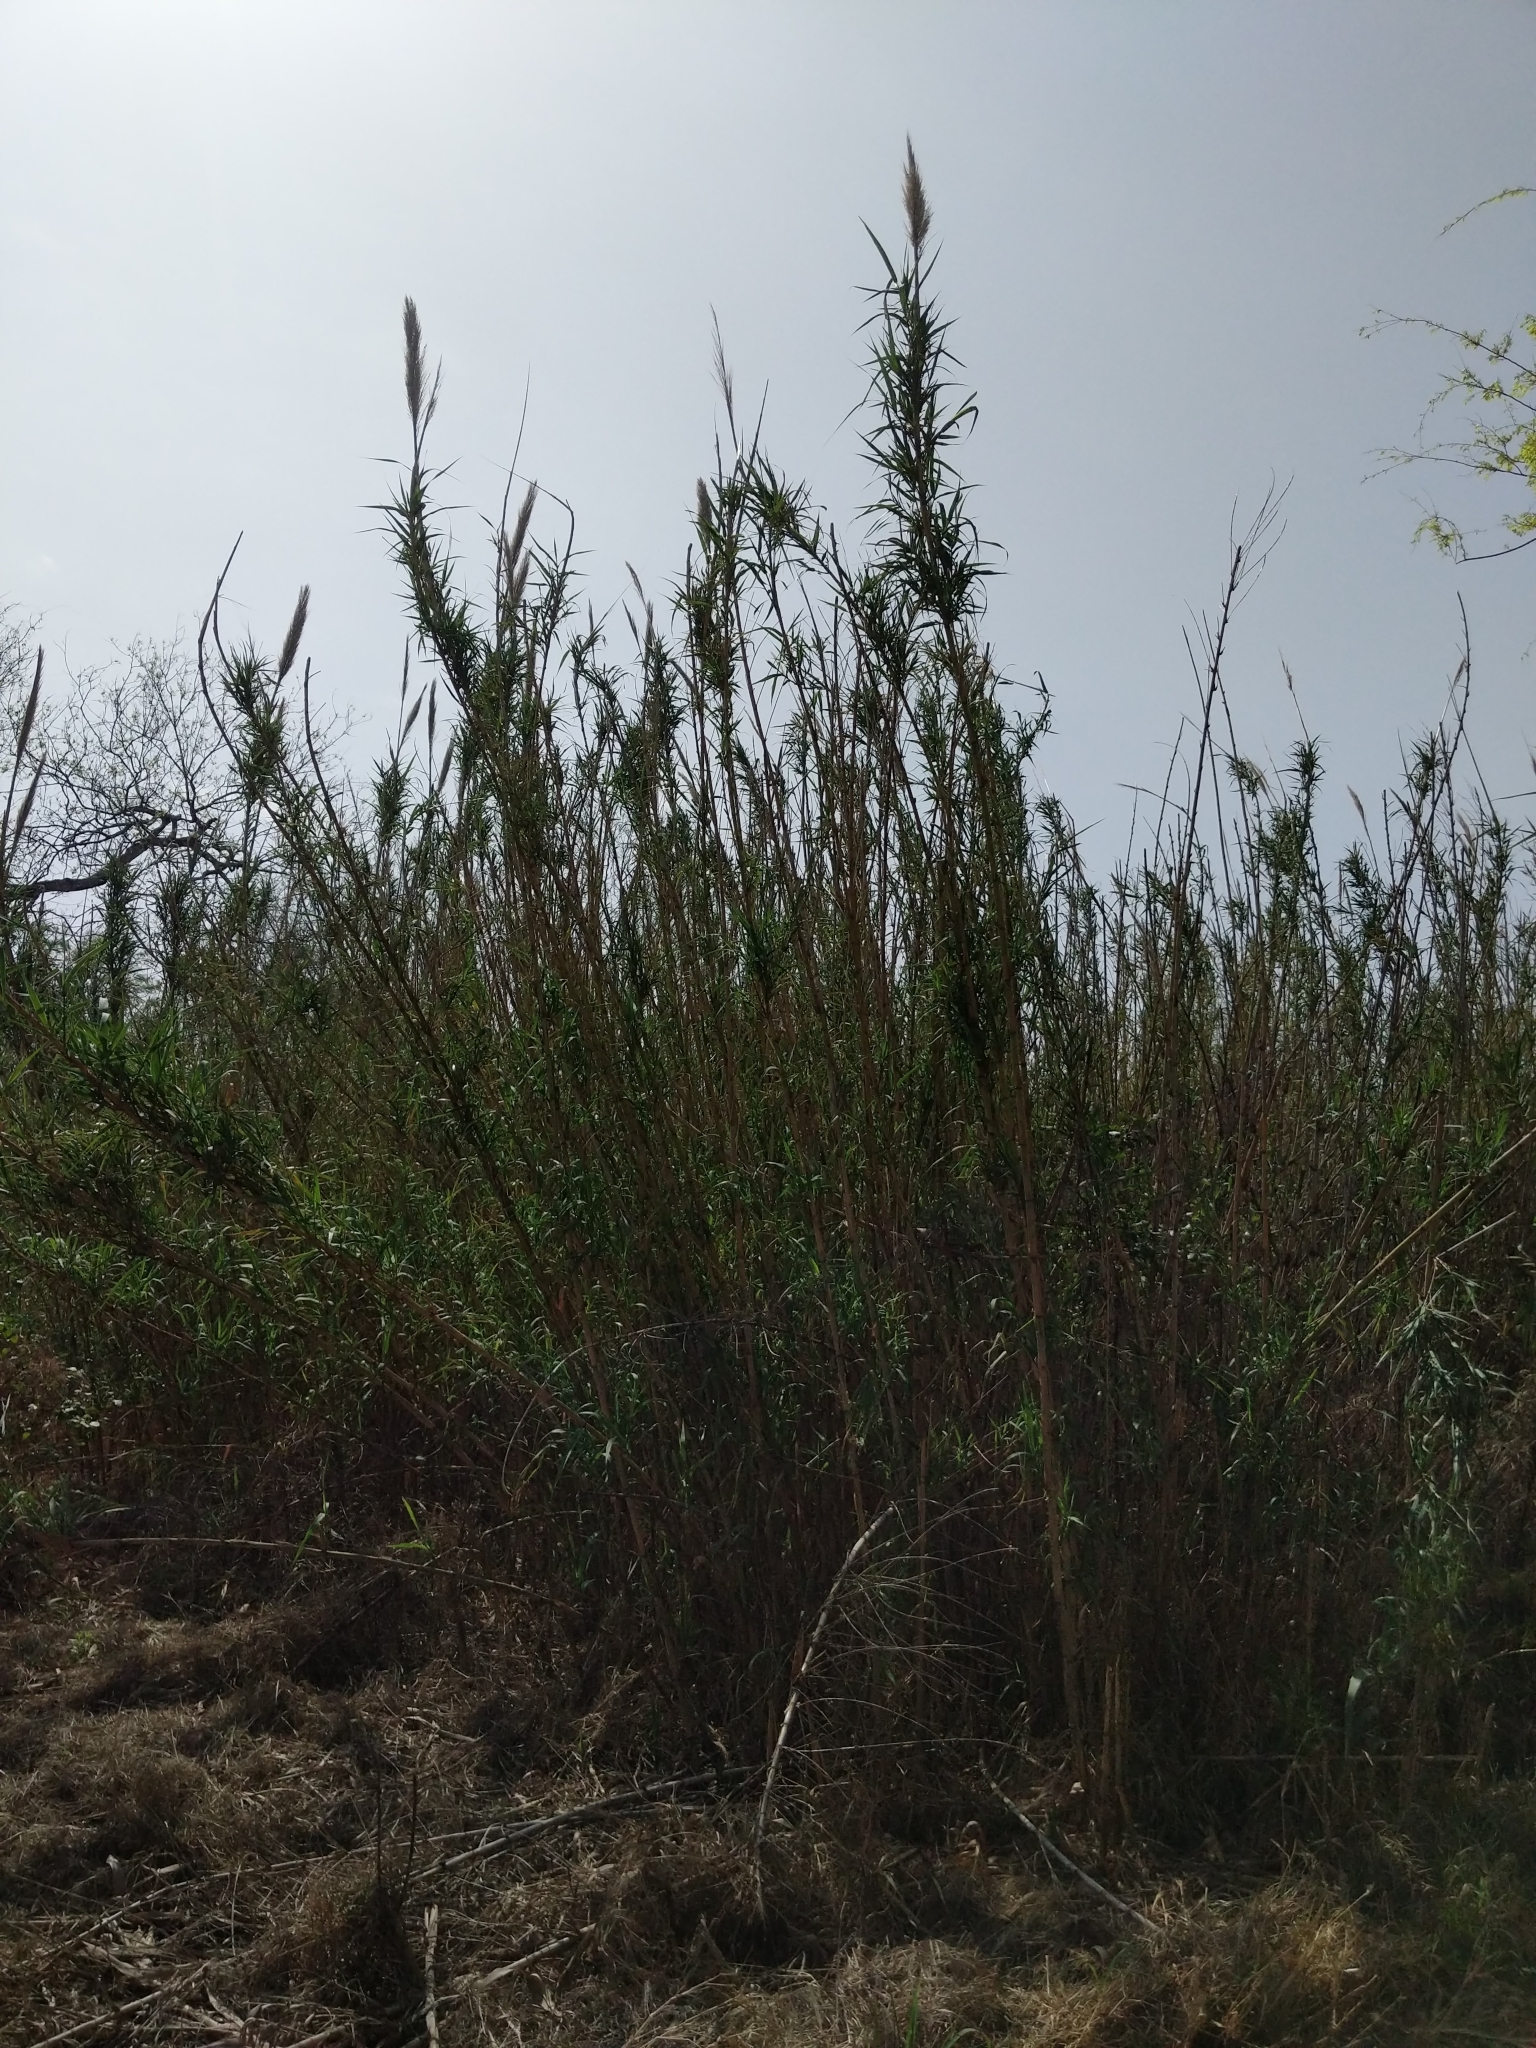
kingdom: Plantae
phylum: Tracheophyta
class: Liliopsida
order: Poales
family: Poaceae
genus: Arundo
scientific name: Arundo donax
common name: Giant reed
